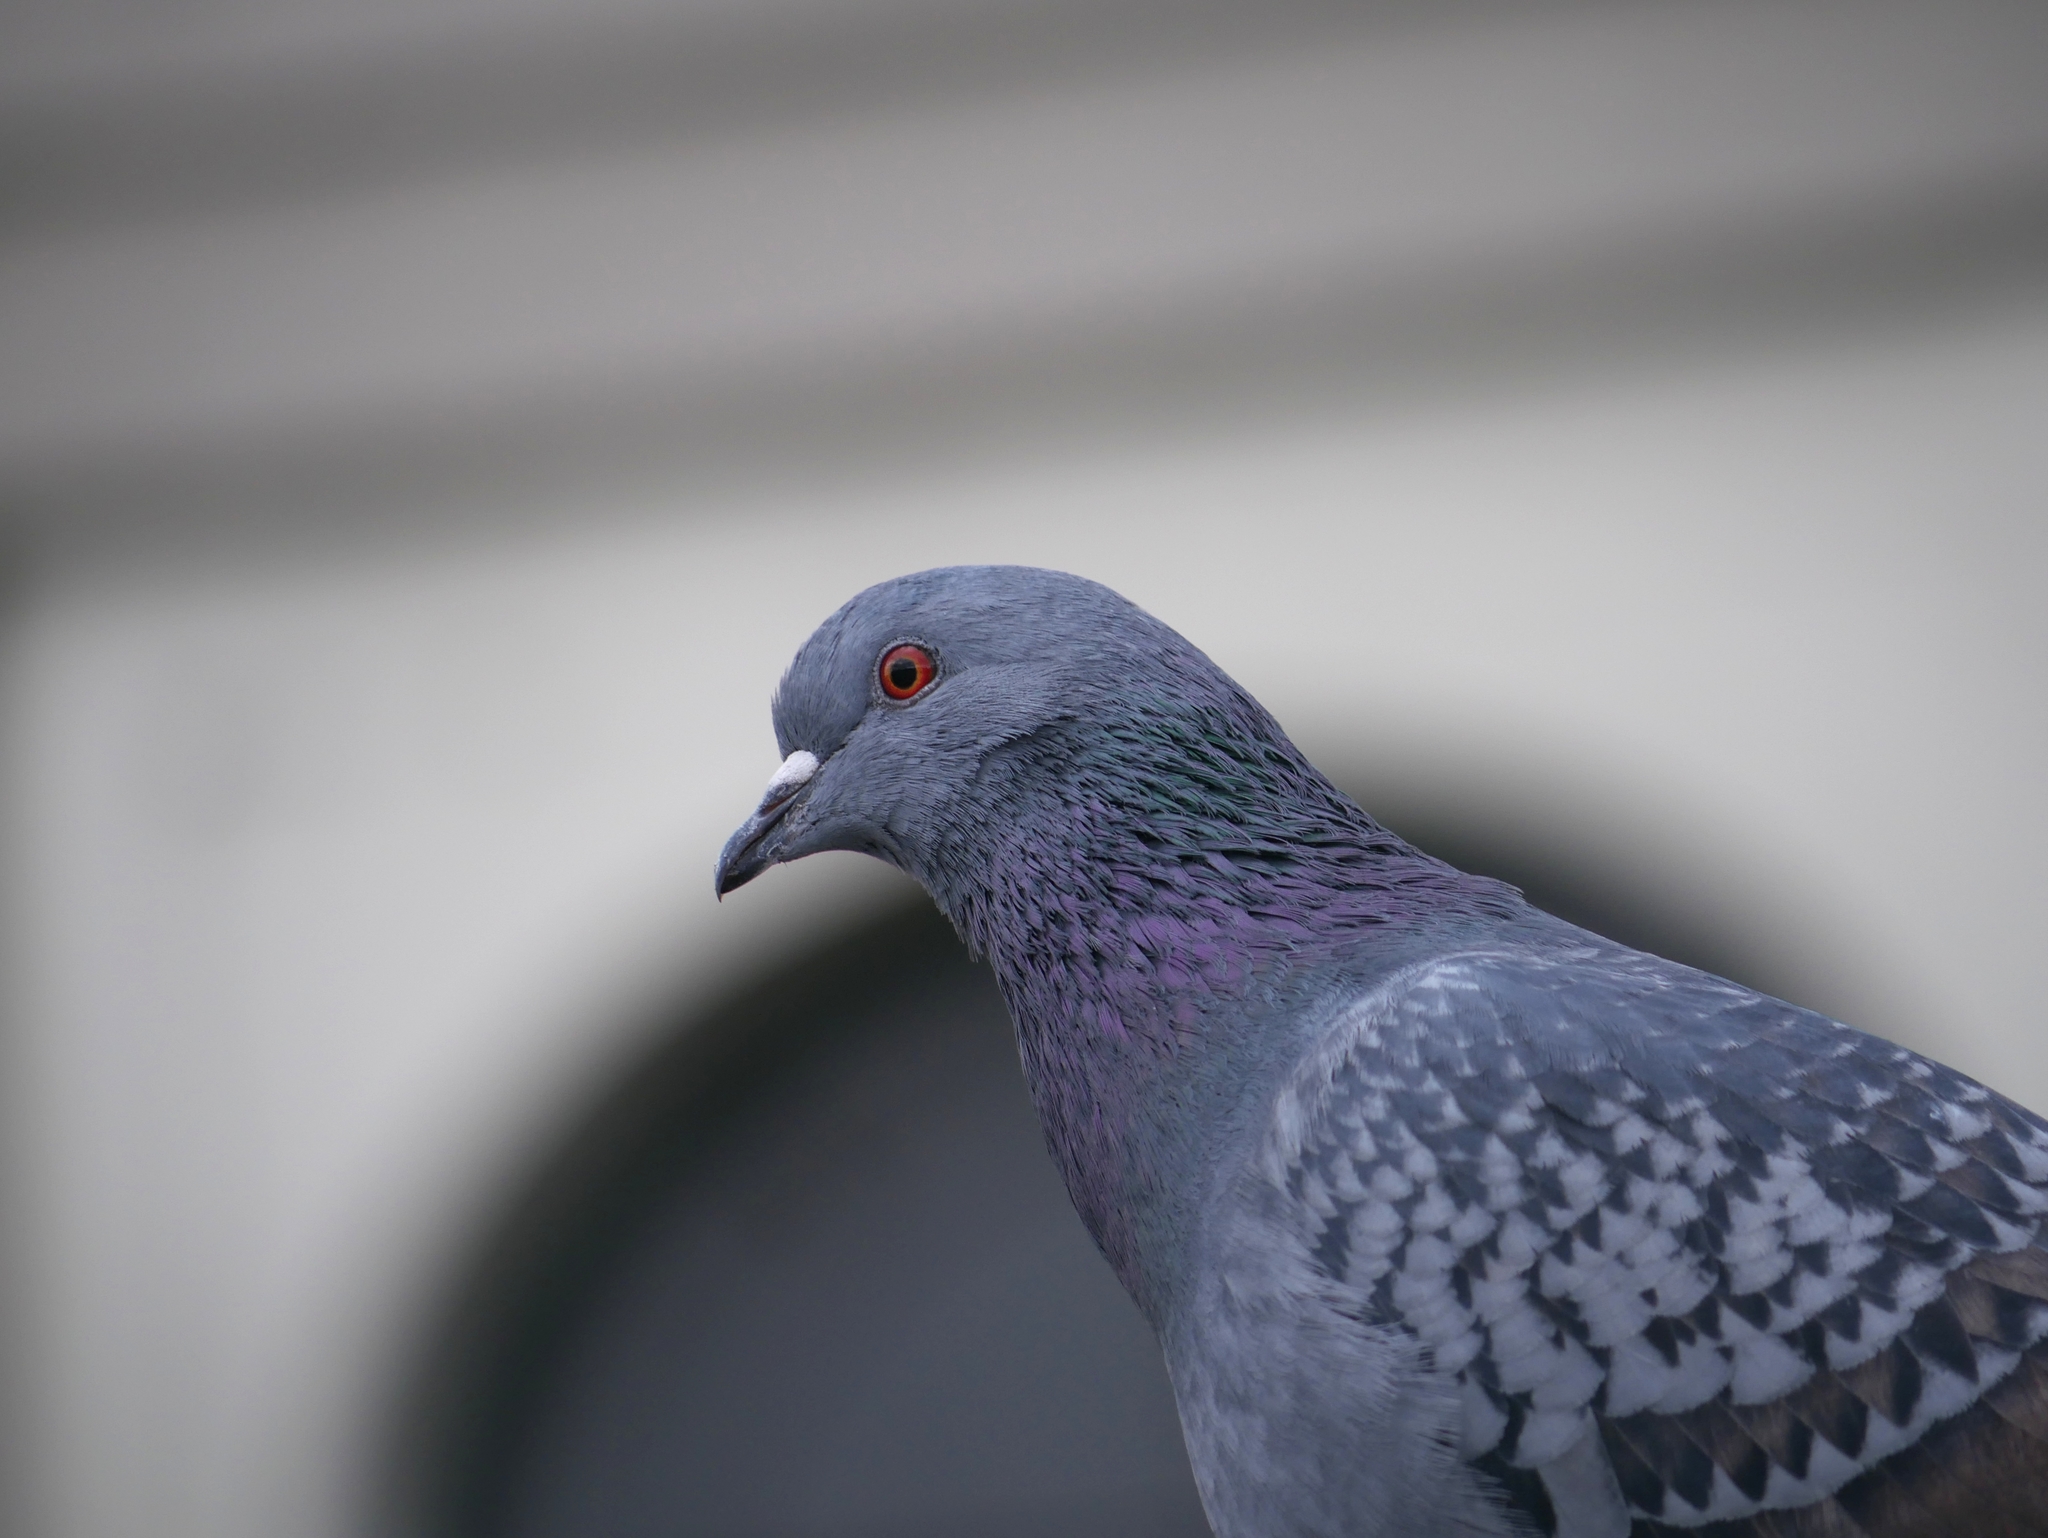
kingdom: Animalia
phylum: Chordata
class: Aves
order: Columbiformes
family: Columbidae
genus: Columba
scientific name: Columba livia
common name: Rock pigeon
